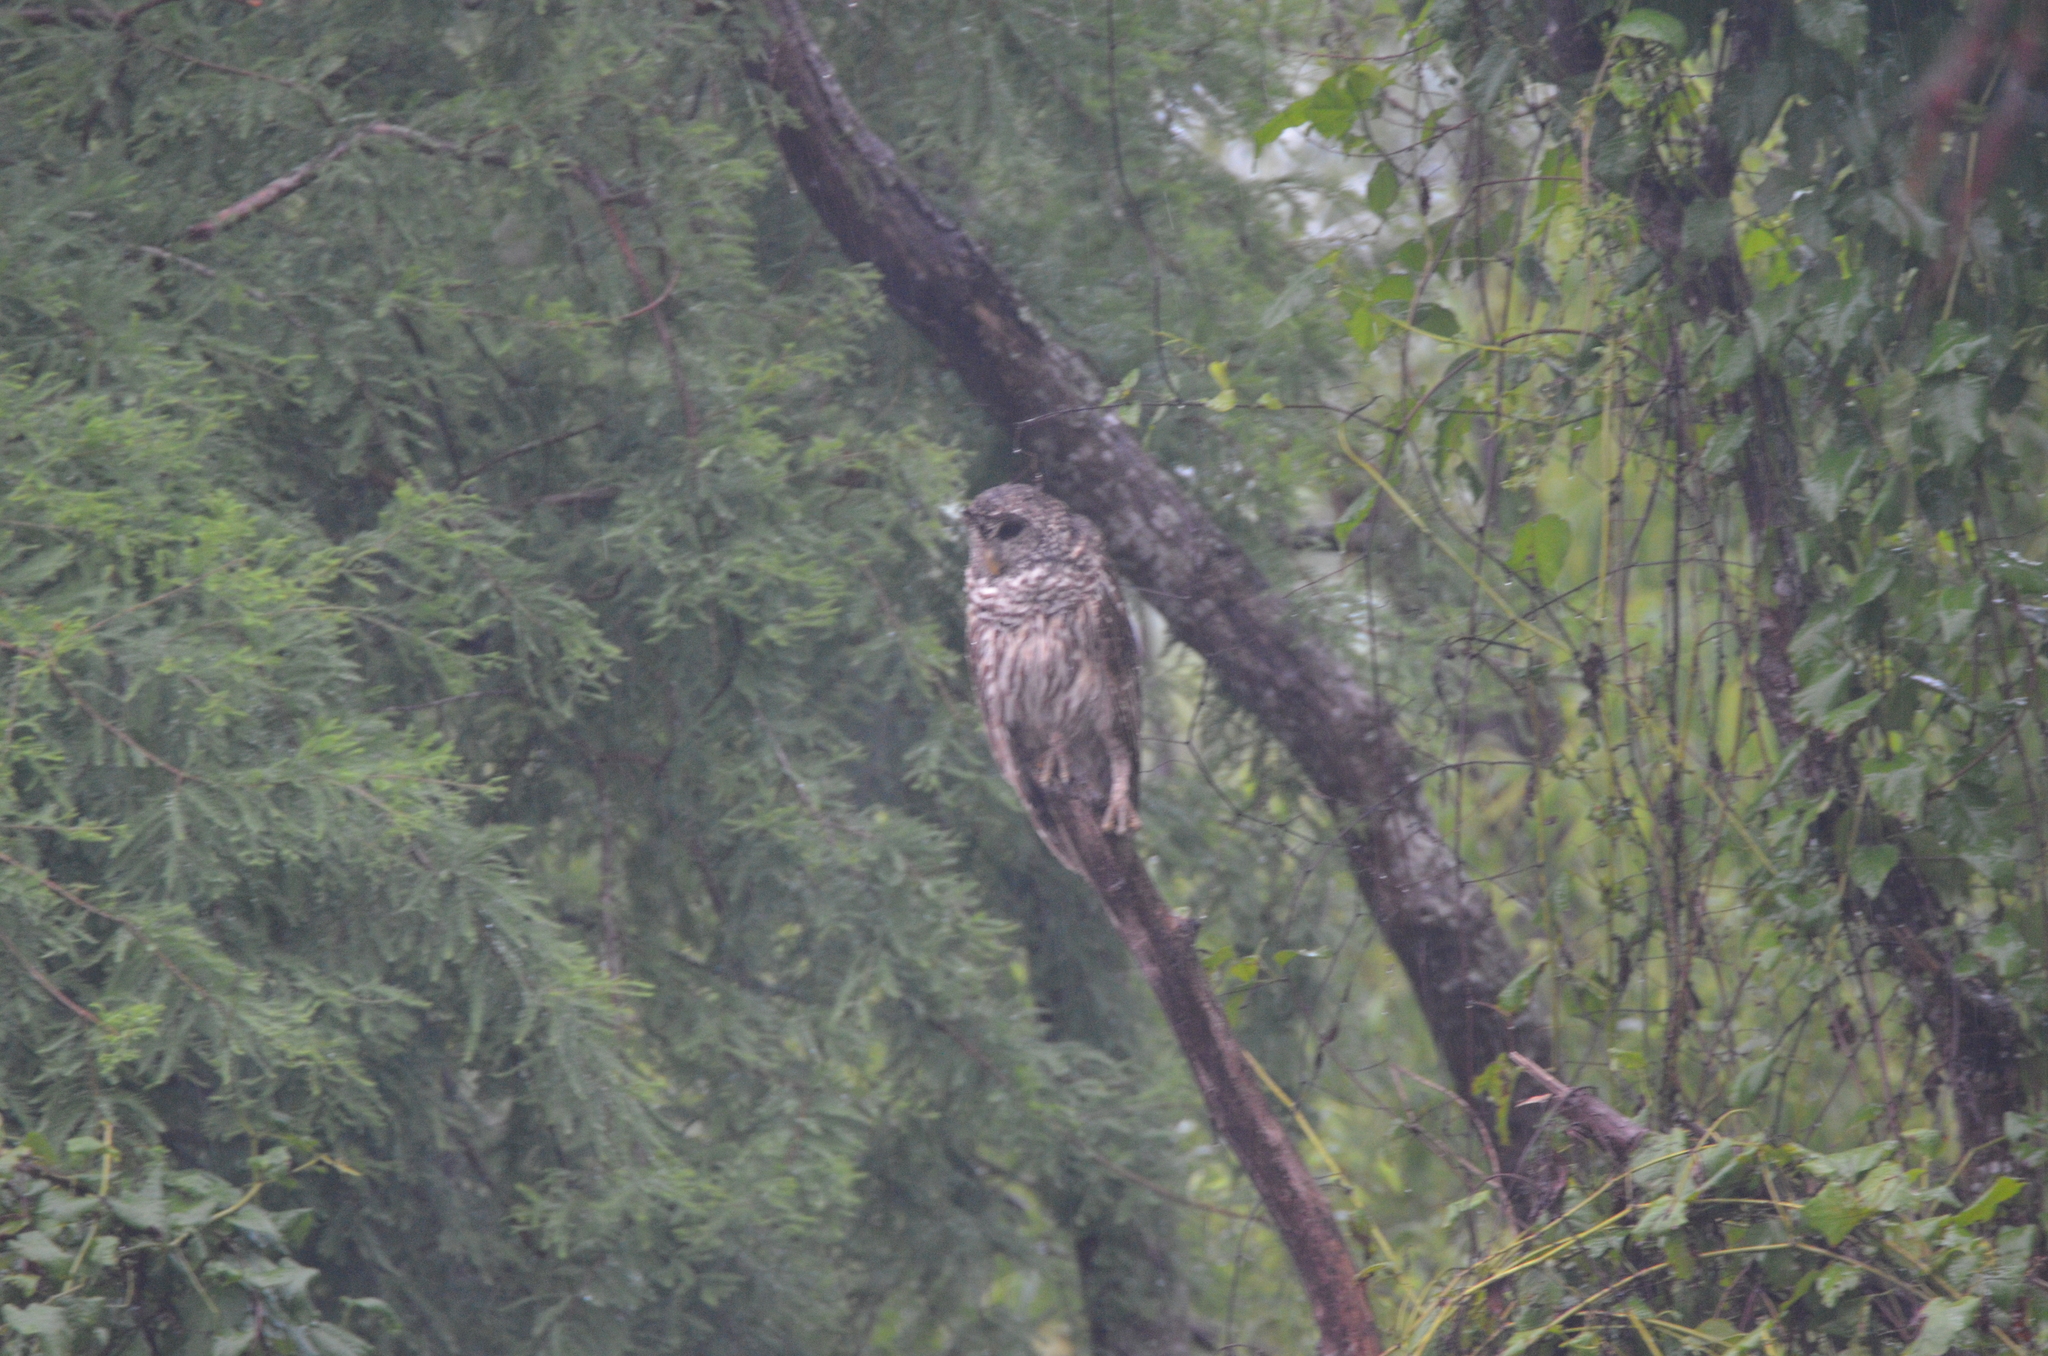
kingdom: Animalia
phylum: Chordata
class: Aves
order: Strigiformes
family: Strigidae
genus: Strix
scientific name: Strix varia
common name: Barred owl
